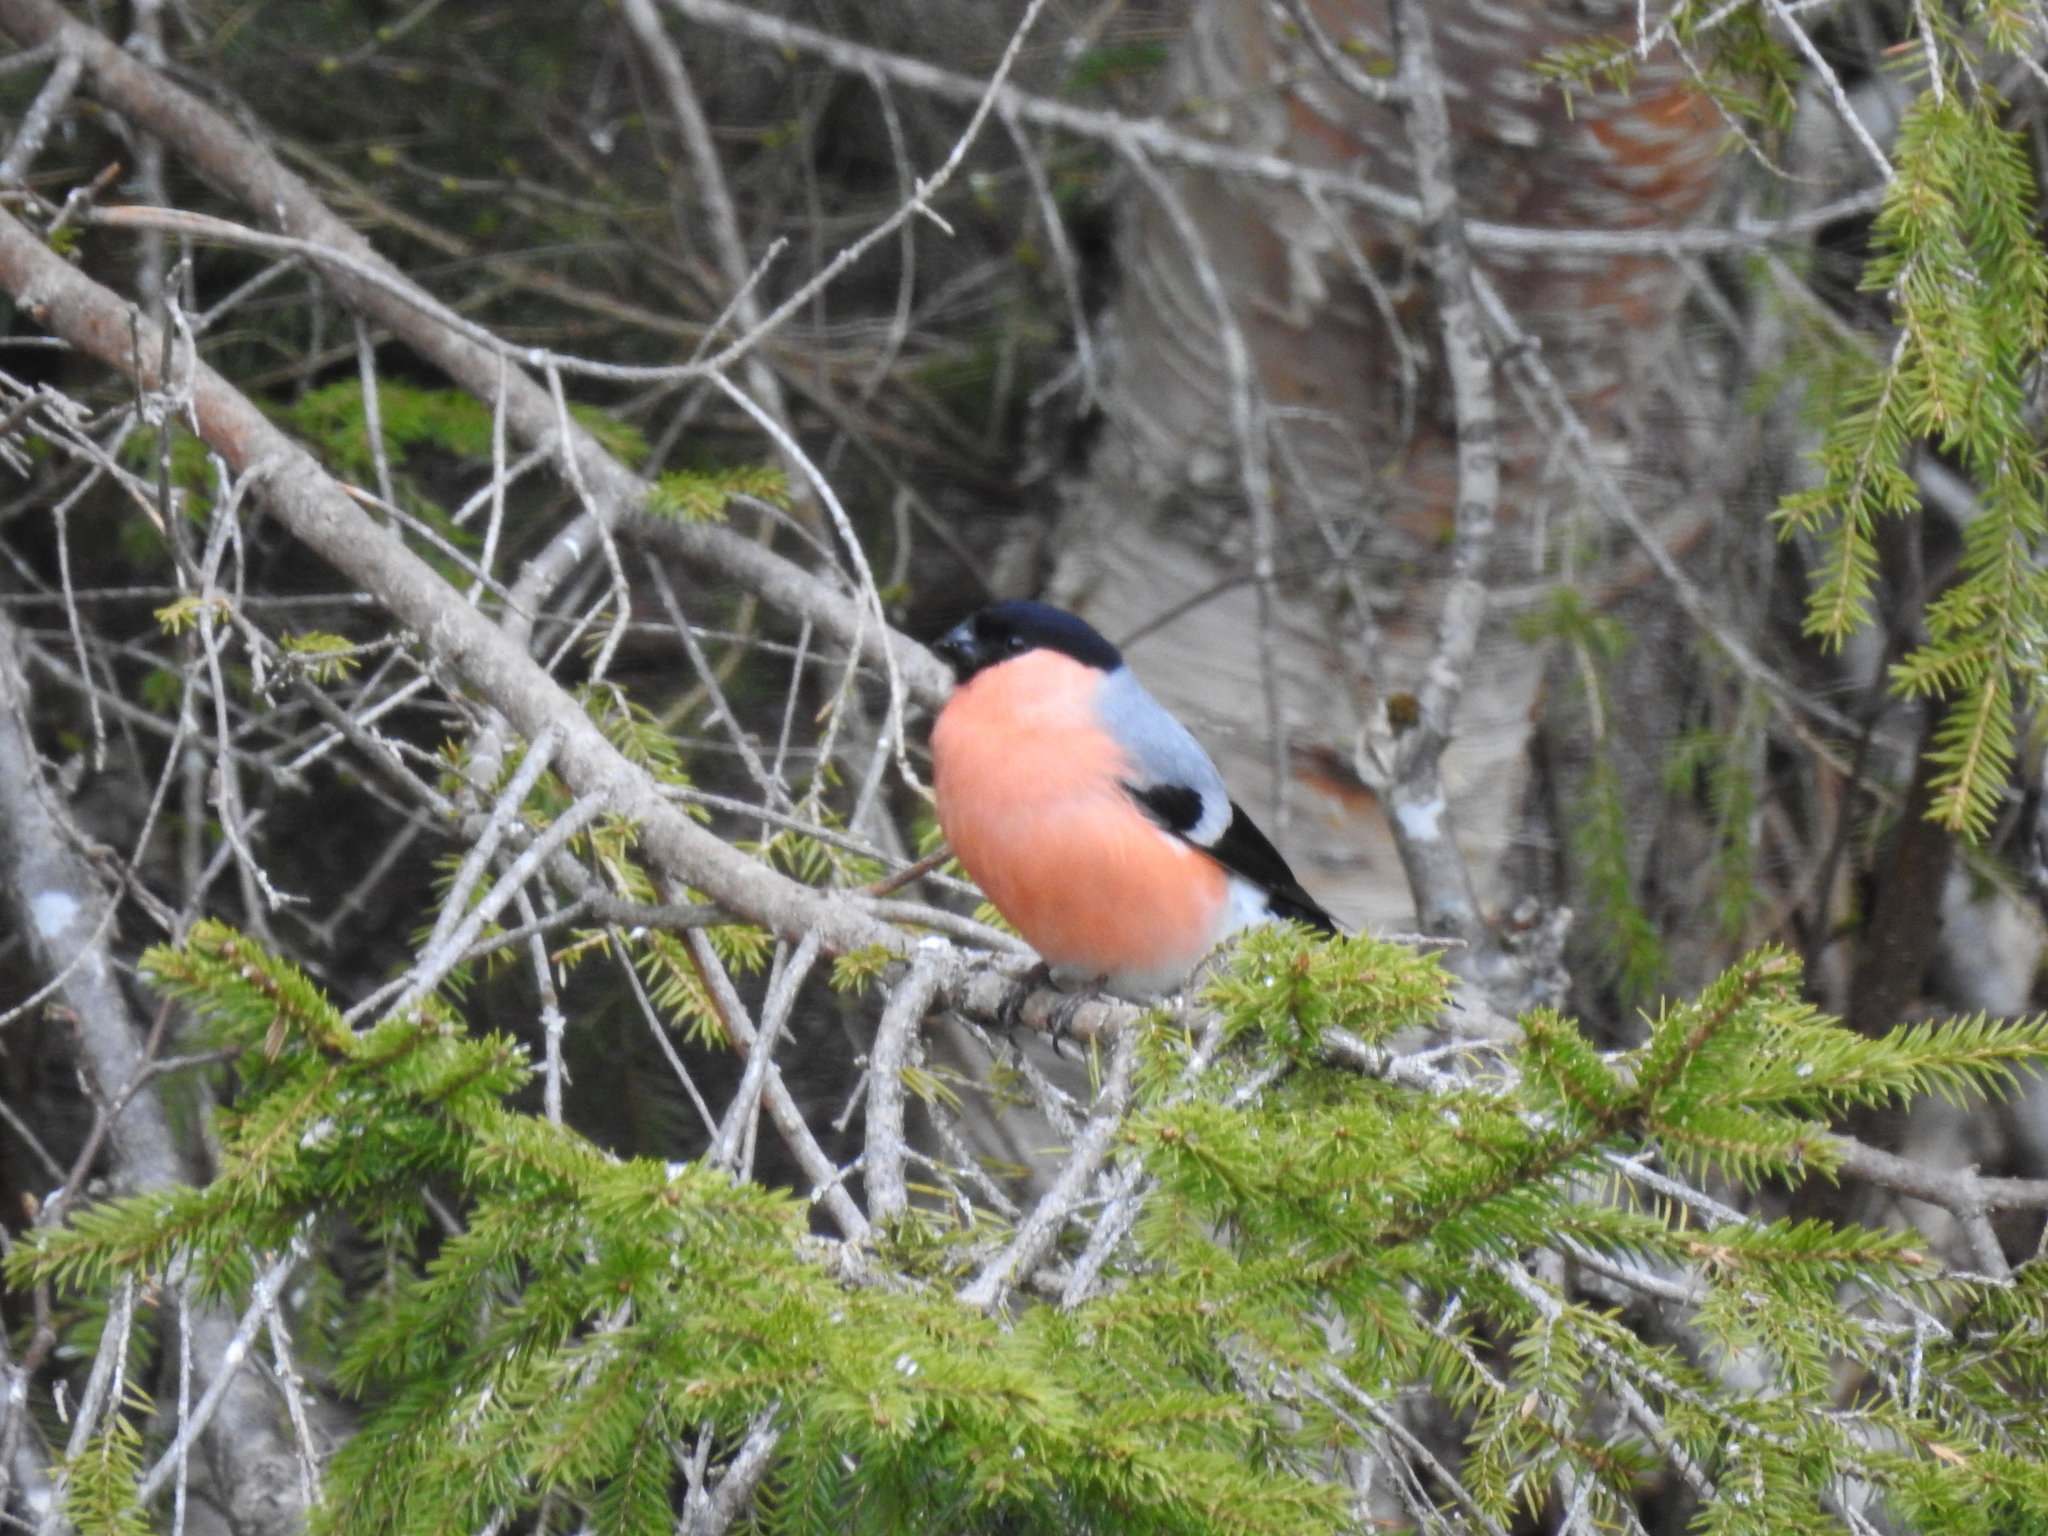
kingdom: Animalia
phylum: Chordata
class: Aves
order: Passeriformes
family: Fringillidae
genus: Pyrrhula
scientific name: Pyrrhula pyrrhula
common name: Eurasian bullfinch
